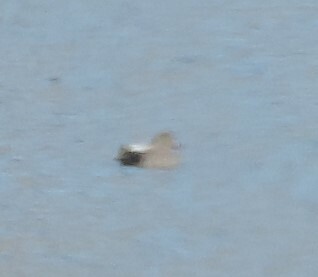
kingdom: Animalia
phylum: Chordata
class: Aves
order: Anseriformes
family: Anatidae
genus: Mareca
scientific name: Mareca strepera
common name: Gadwall
